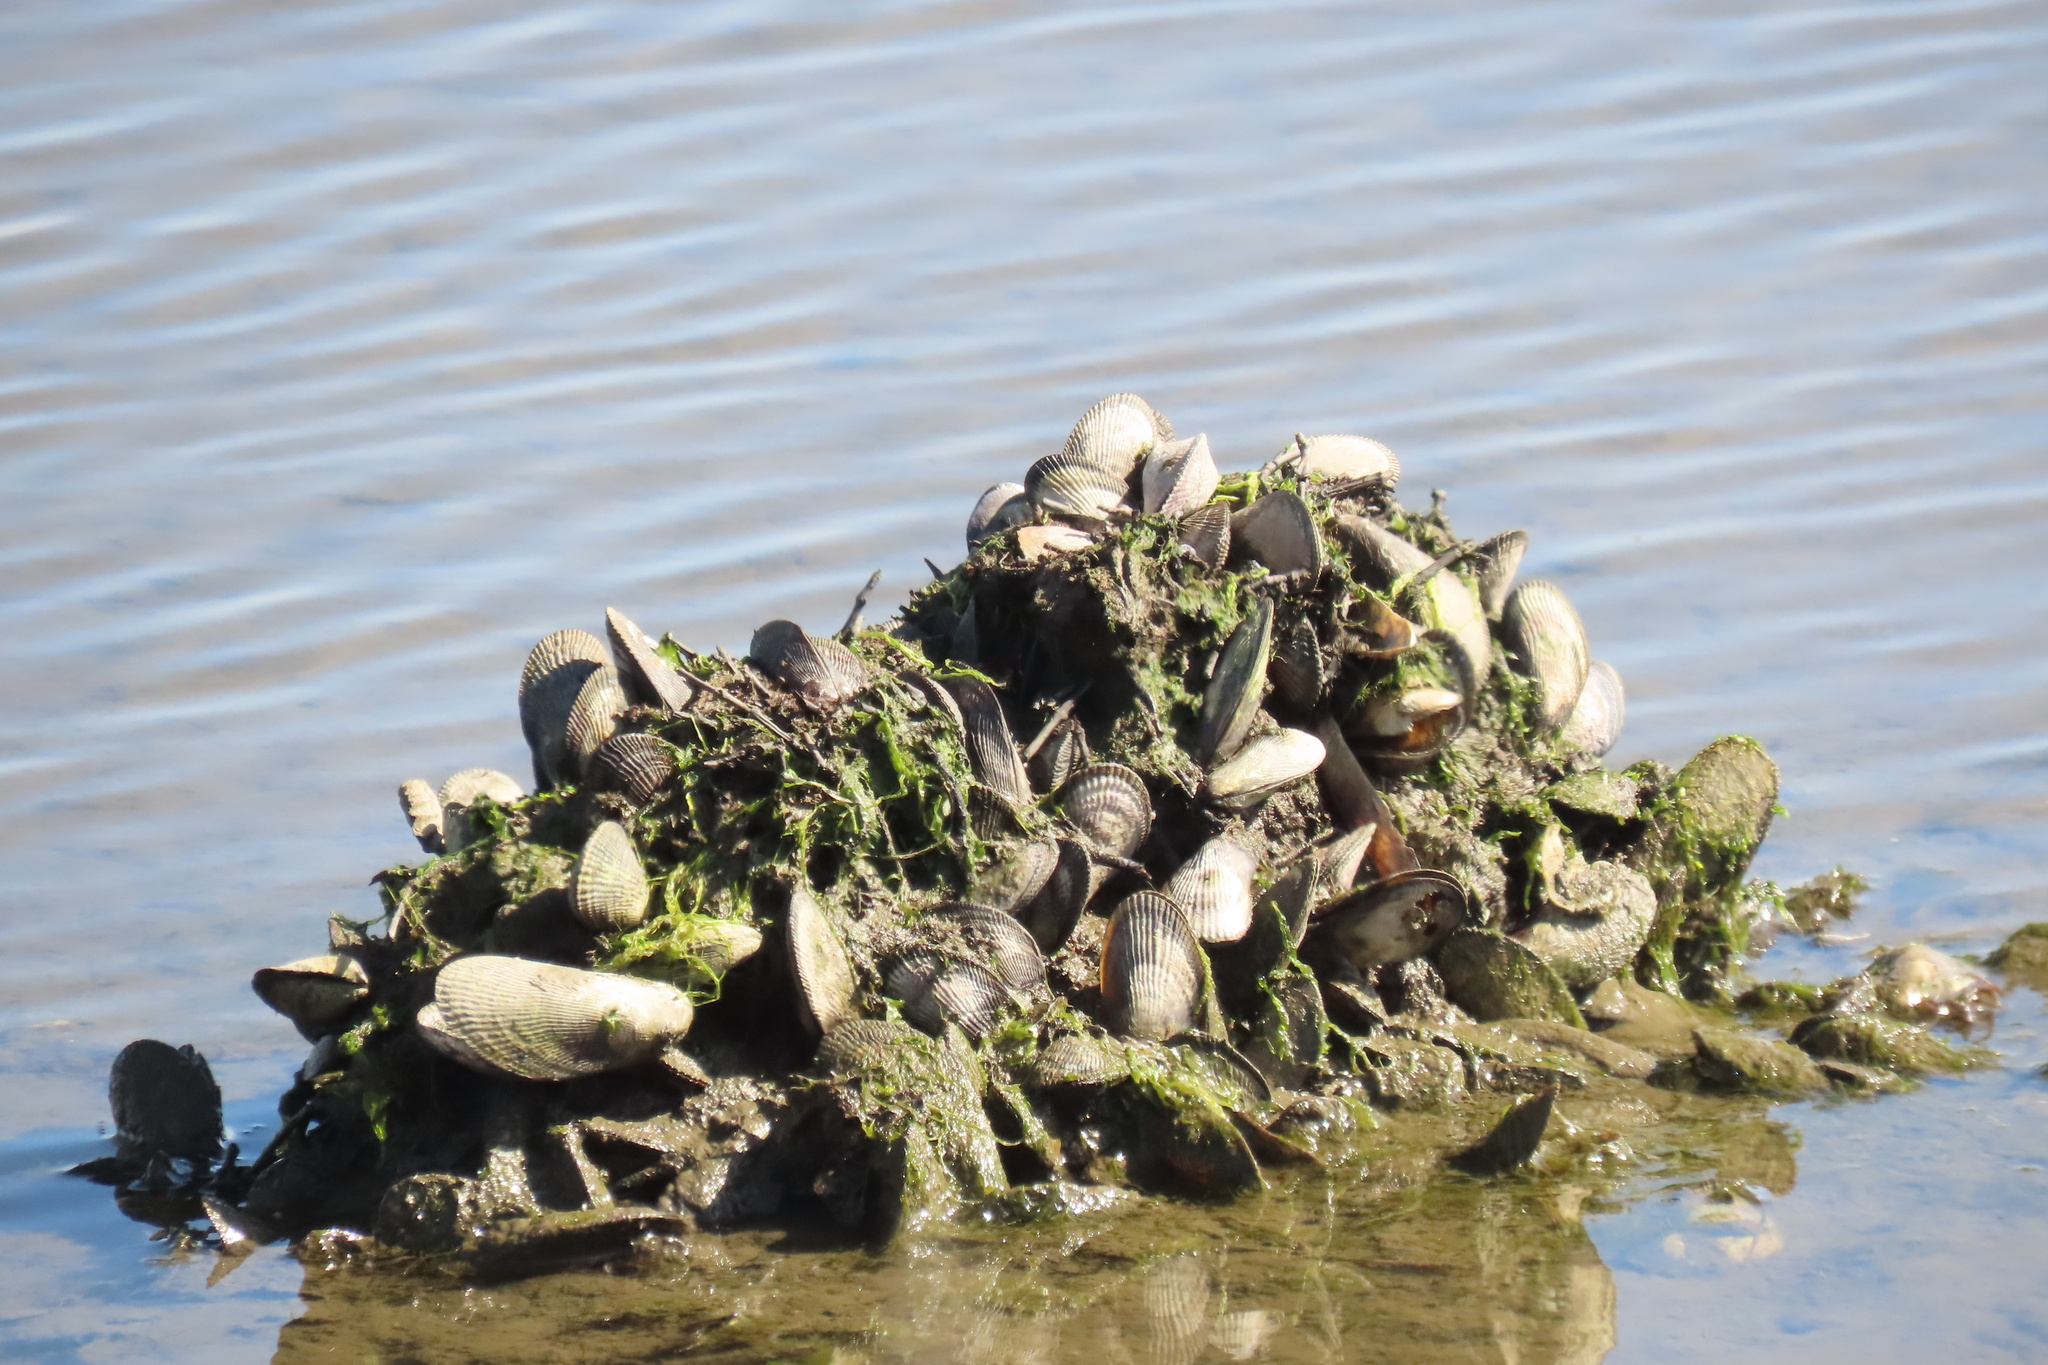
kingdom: Animalia
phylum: Mollusca
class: Bivalvia
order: Mytilida
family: Mytilidae
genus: Geukensia
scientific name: Geukensia demissa
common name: Ribbed mussel
